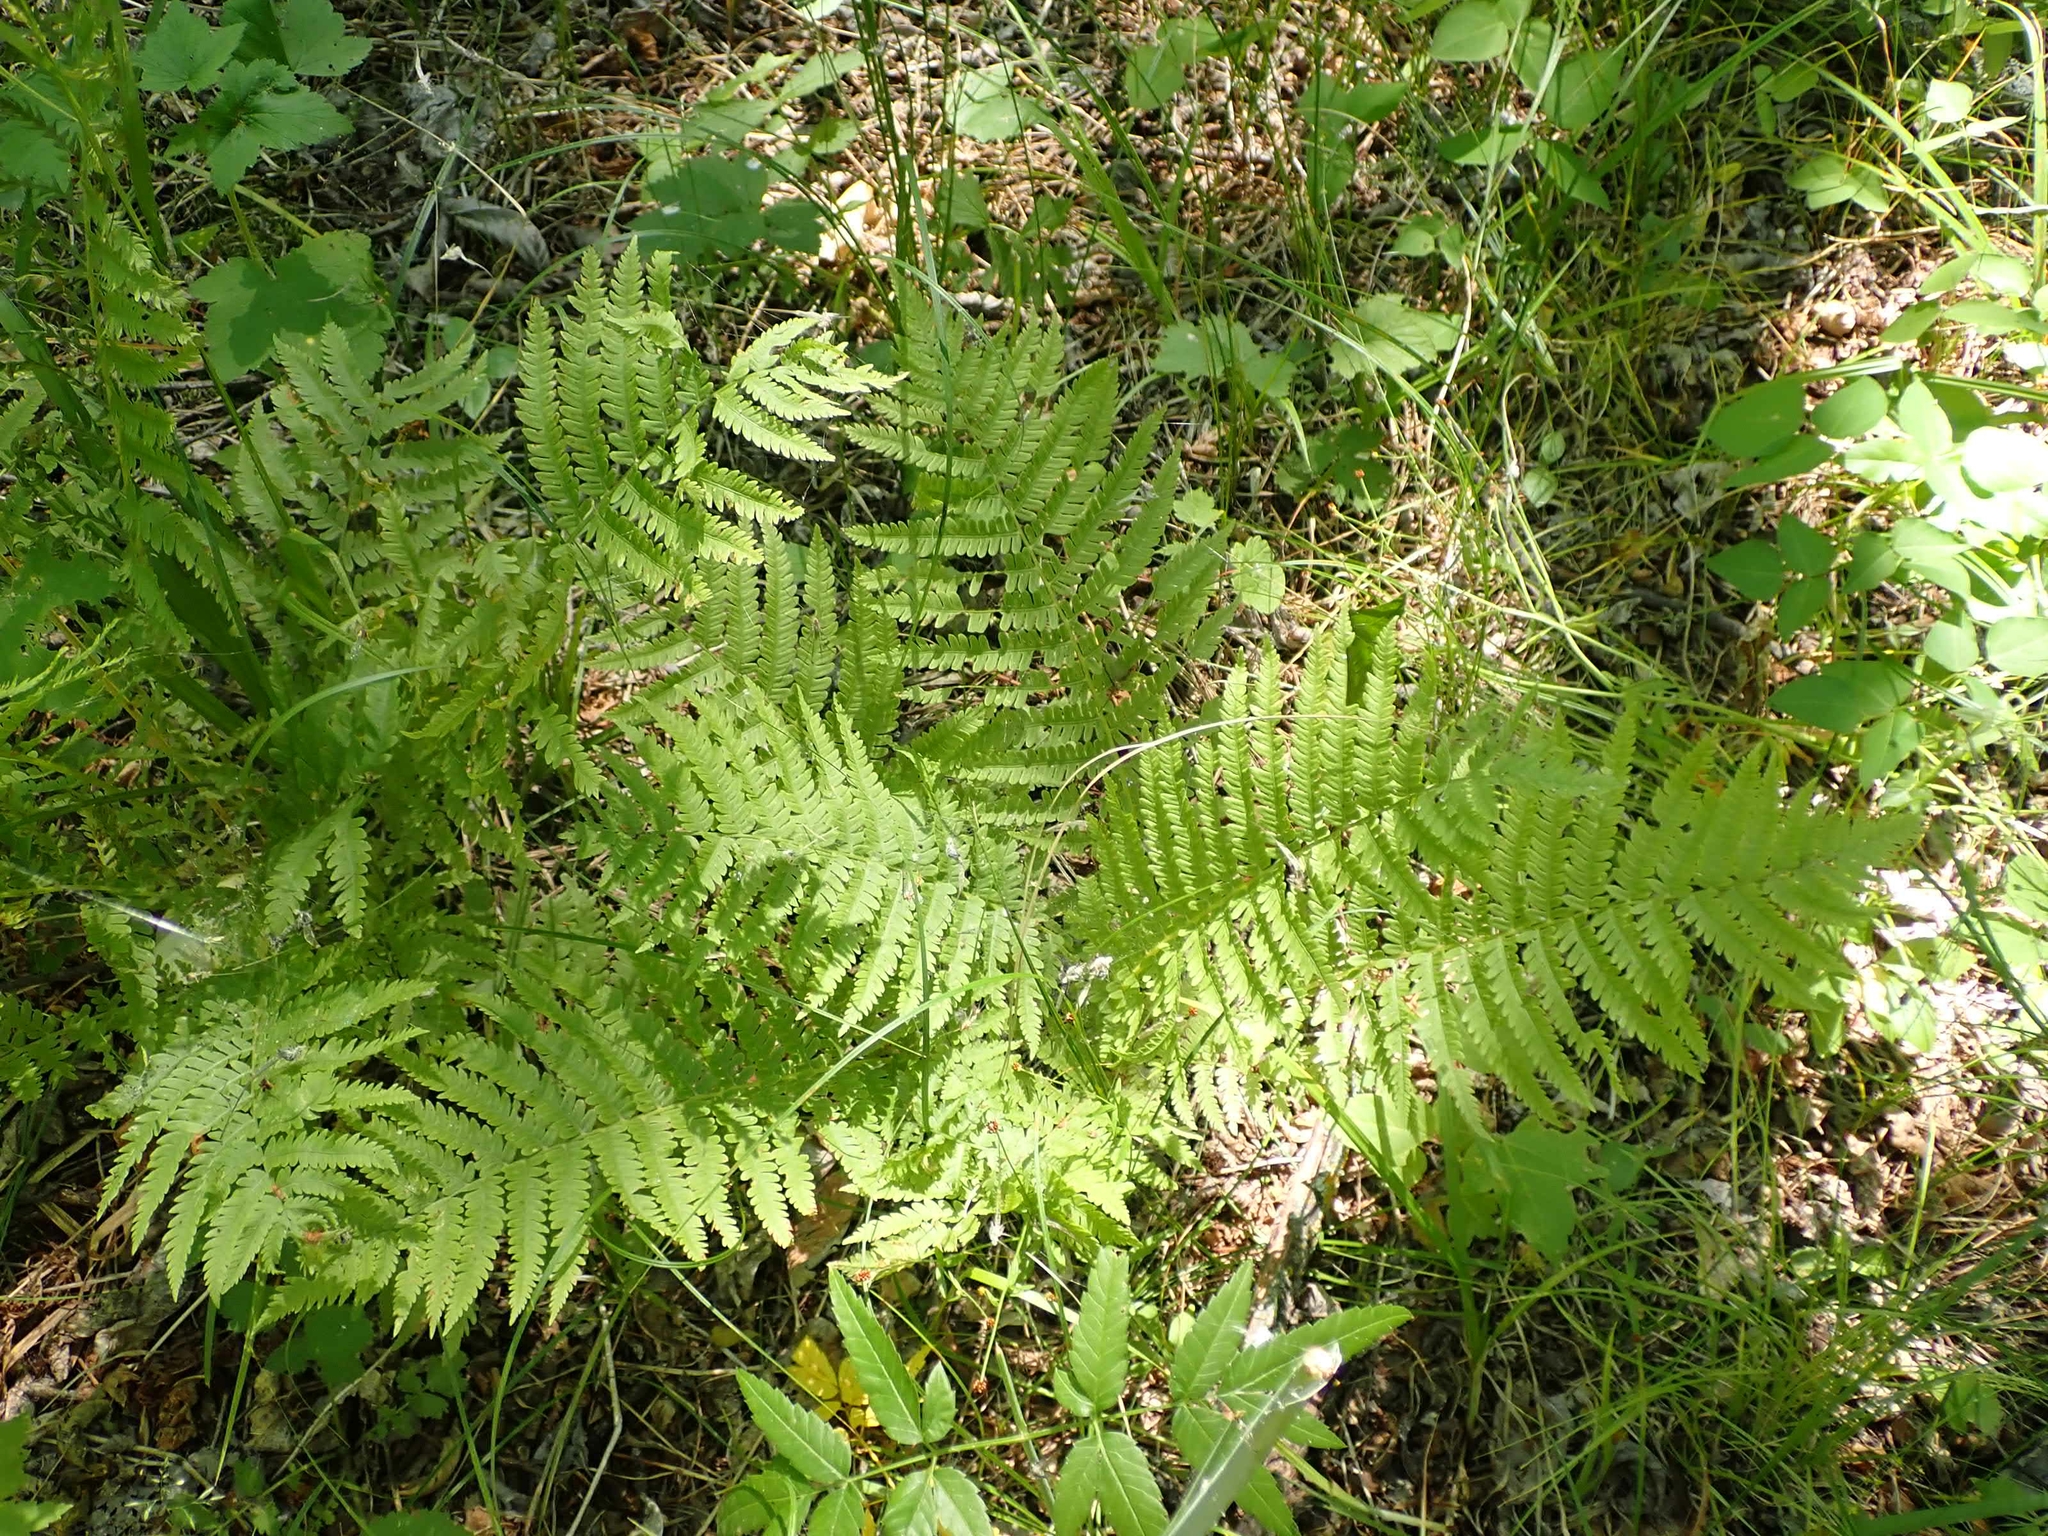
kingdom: Plantae
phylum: Tracheophyta
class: Polypodiopsida
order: Polypodiales
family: Onocleaceae
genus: Matteuccia
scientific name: Matteuccia struthiopteris
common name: Ostrich fern
